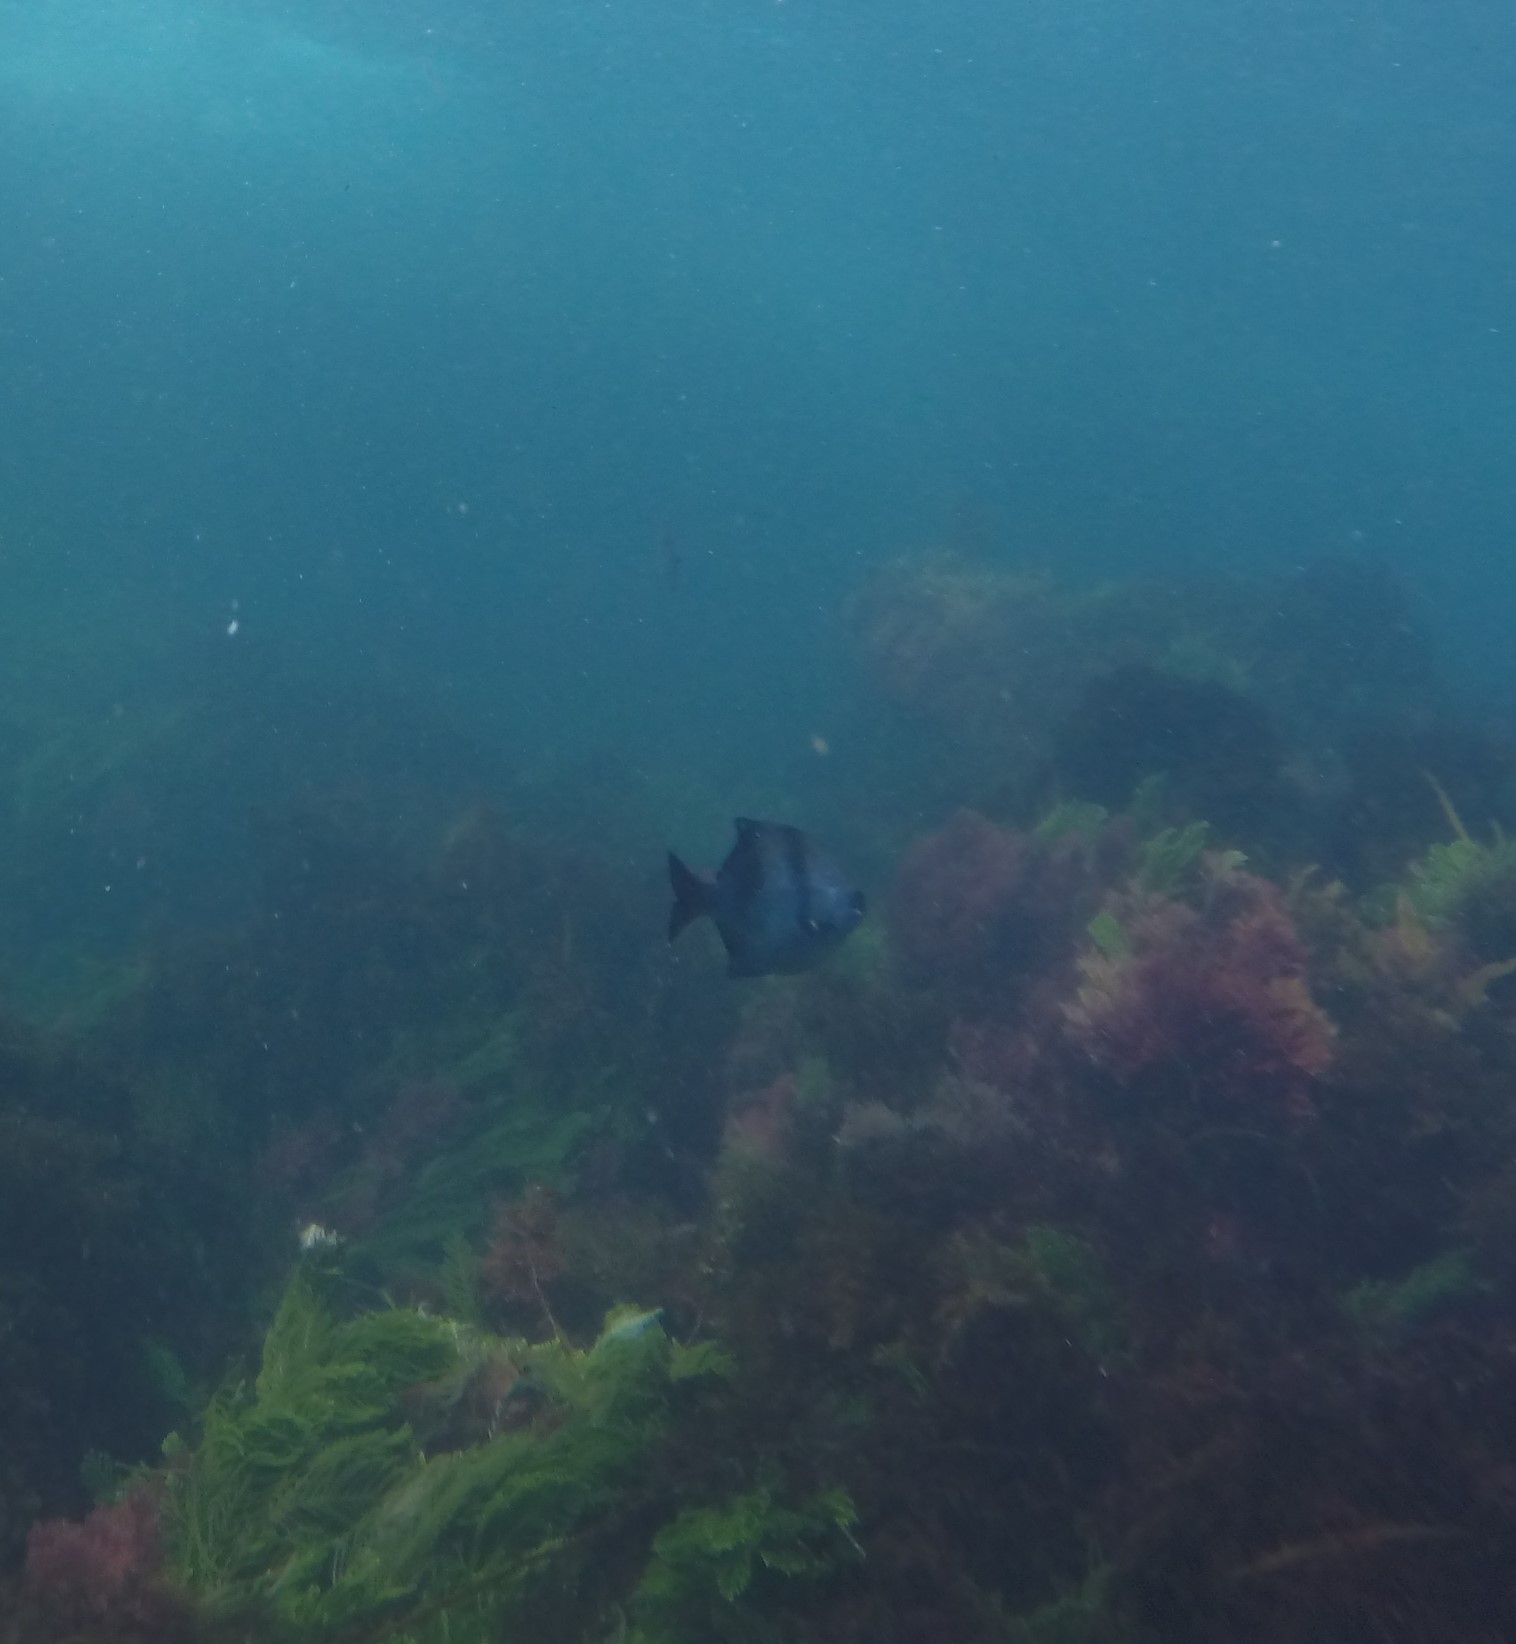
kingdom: Animalia
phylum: Chordata
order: Perciformes
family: Kyphosidae
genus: Scorpis
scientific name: Scorpis aequipinnis
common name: Sea sweep
